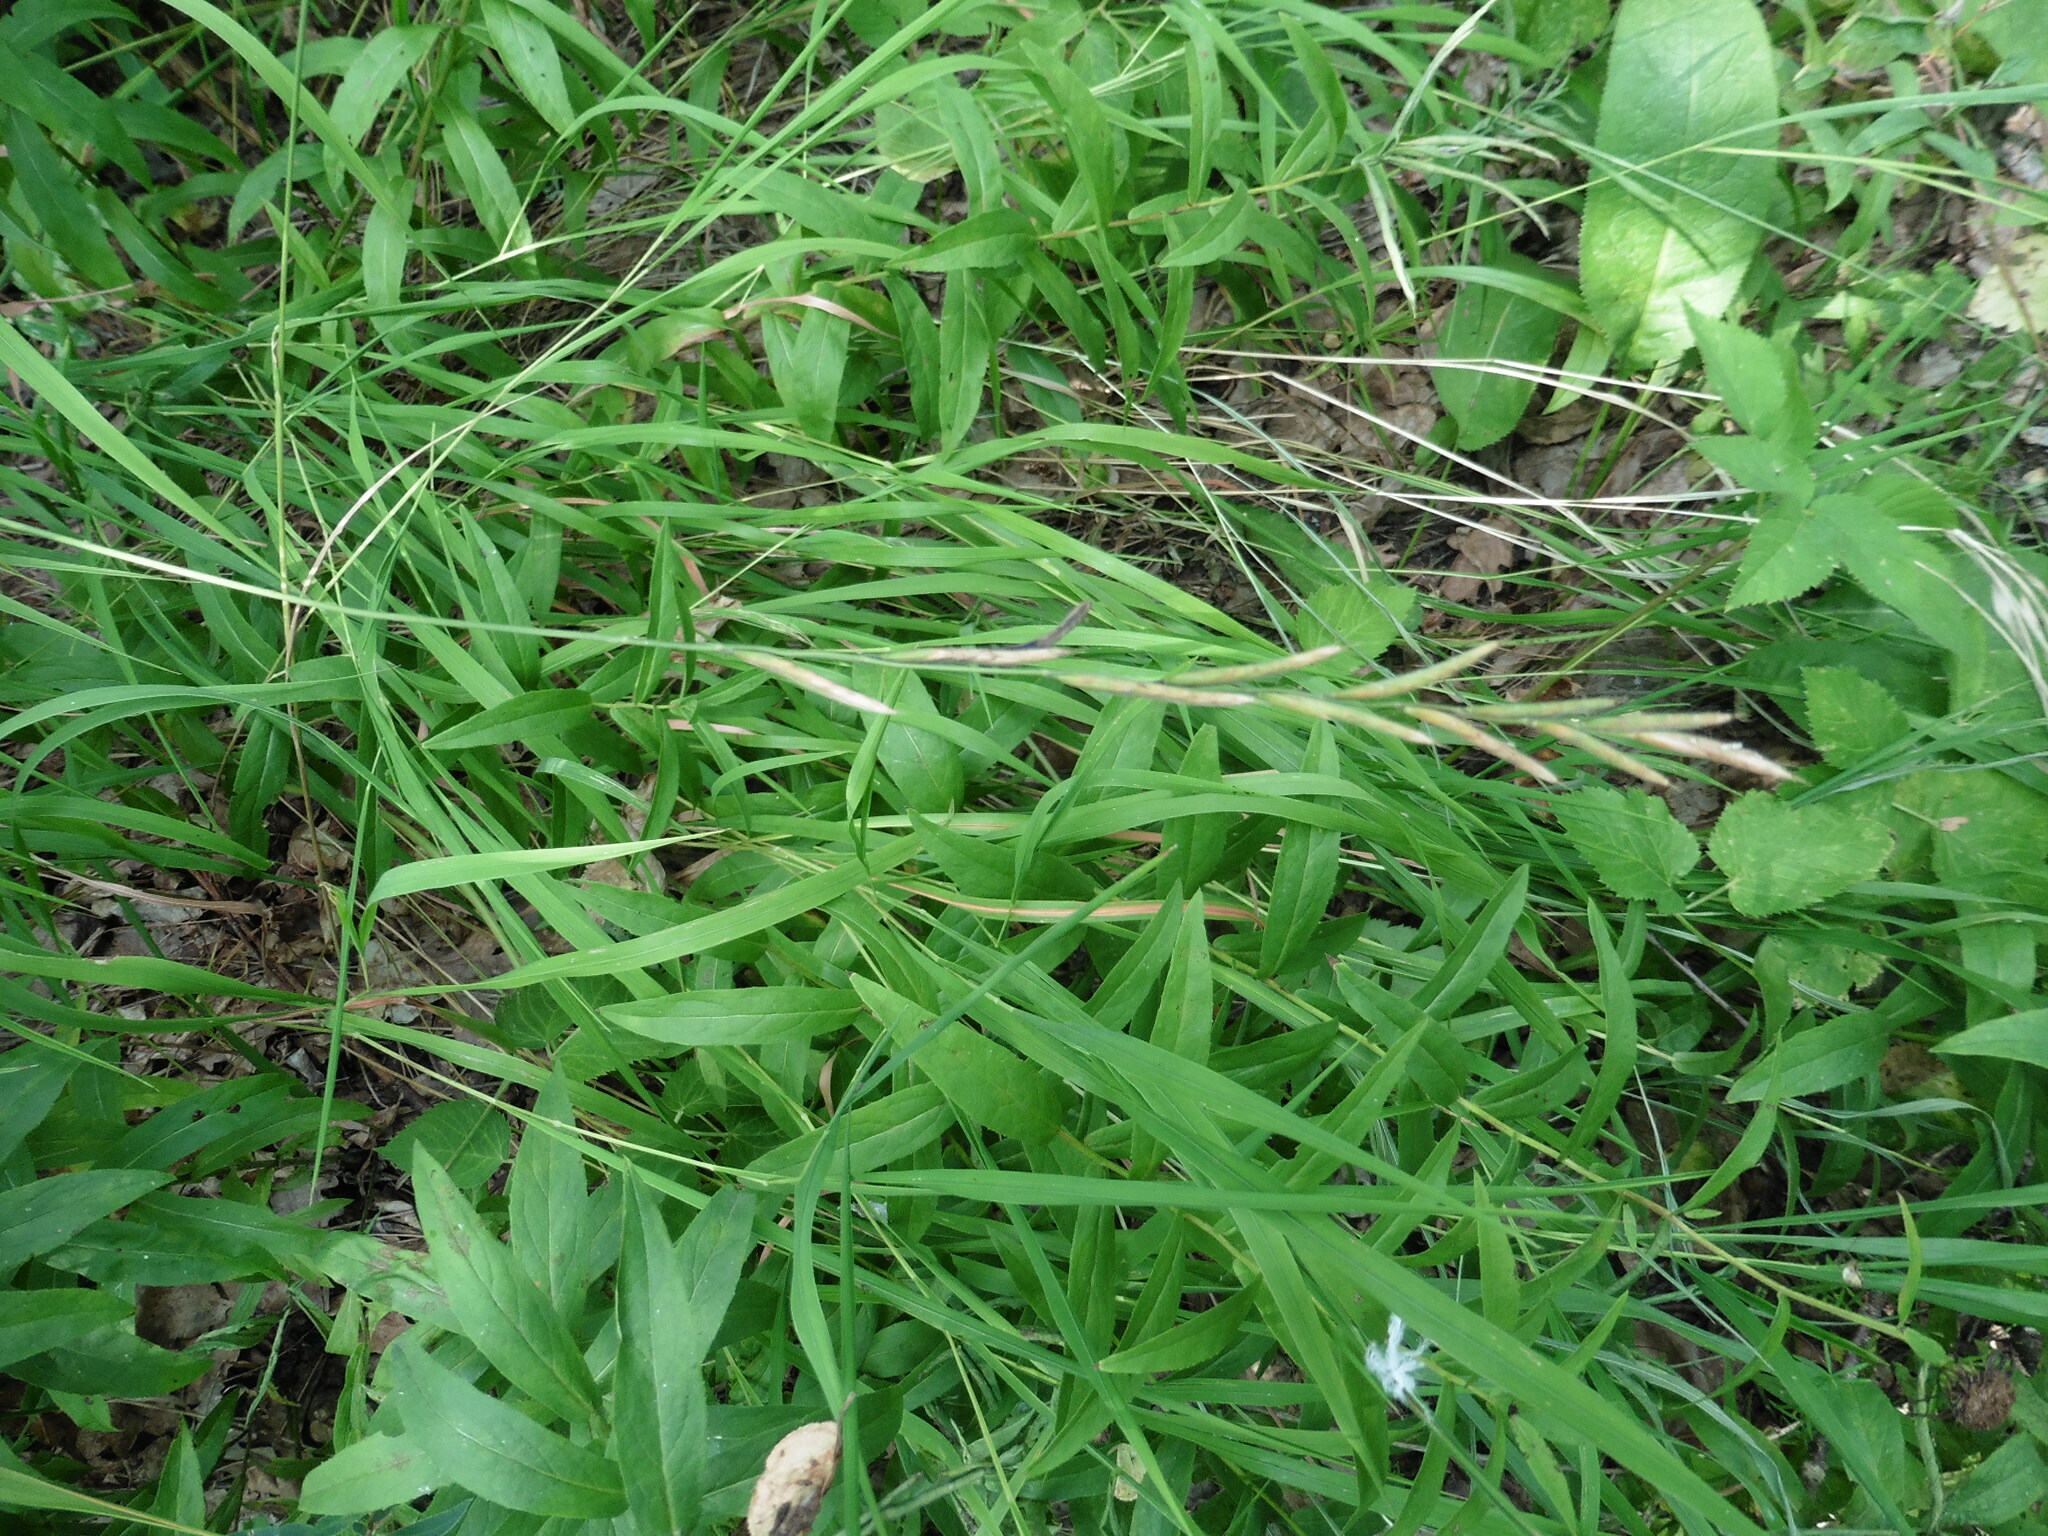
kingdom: Plantae
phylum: Tracheophyta
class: Liliopsida
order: Poales
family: Poaceae
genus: Brachypodium
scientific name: Brachypodium pinnatum
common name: Tor grass
